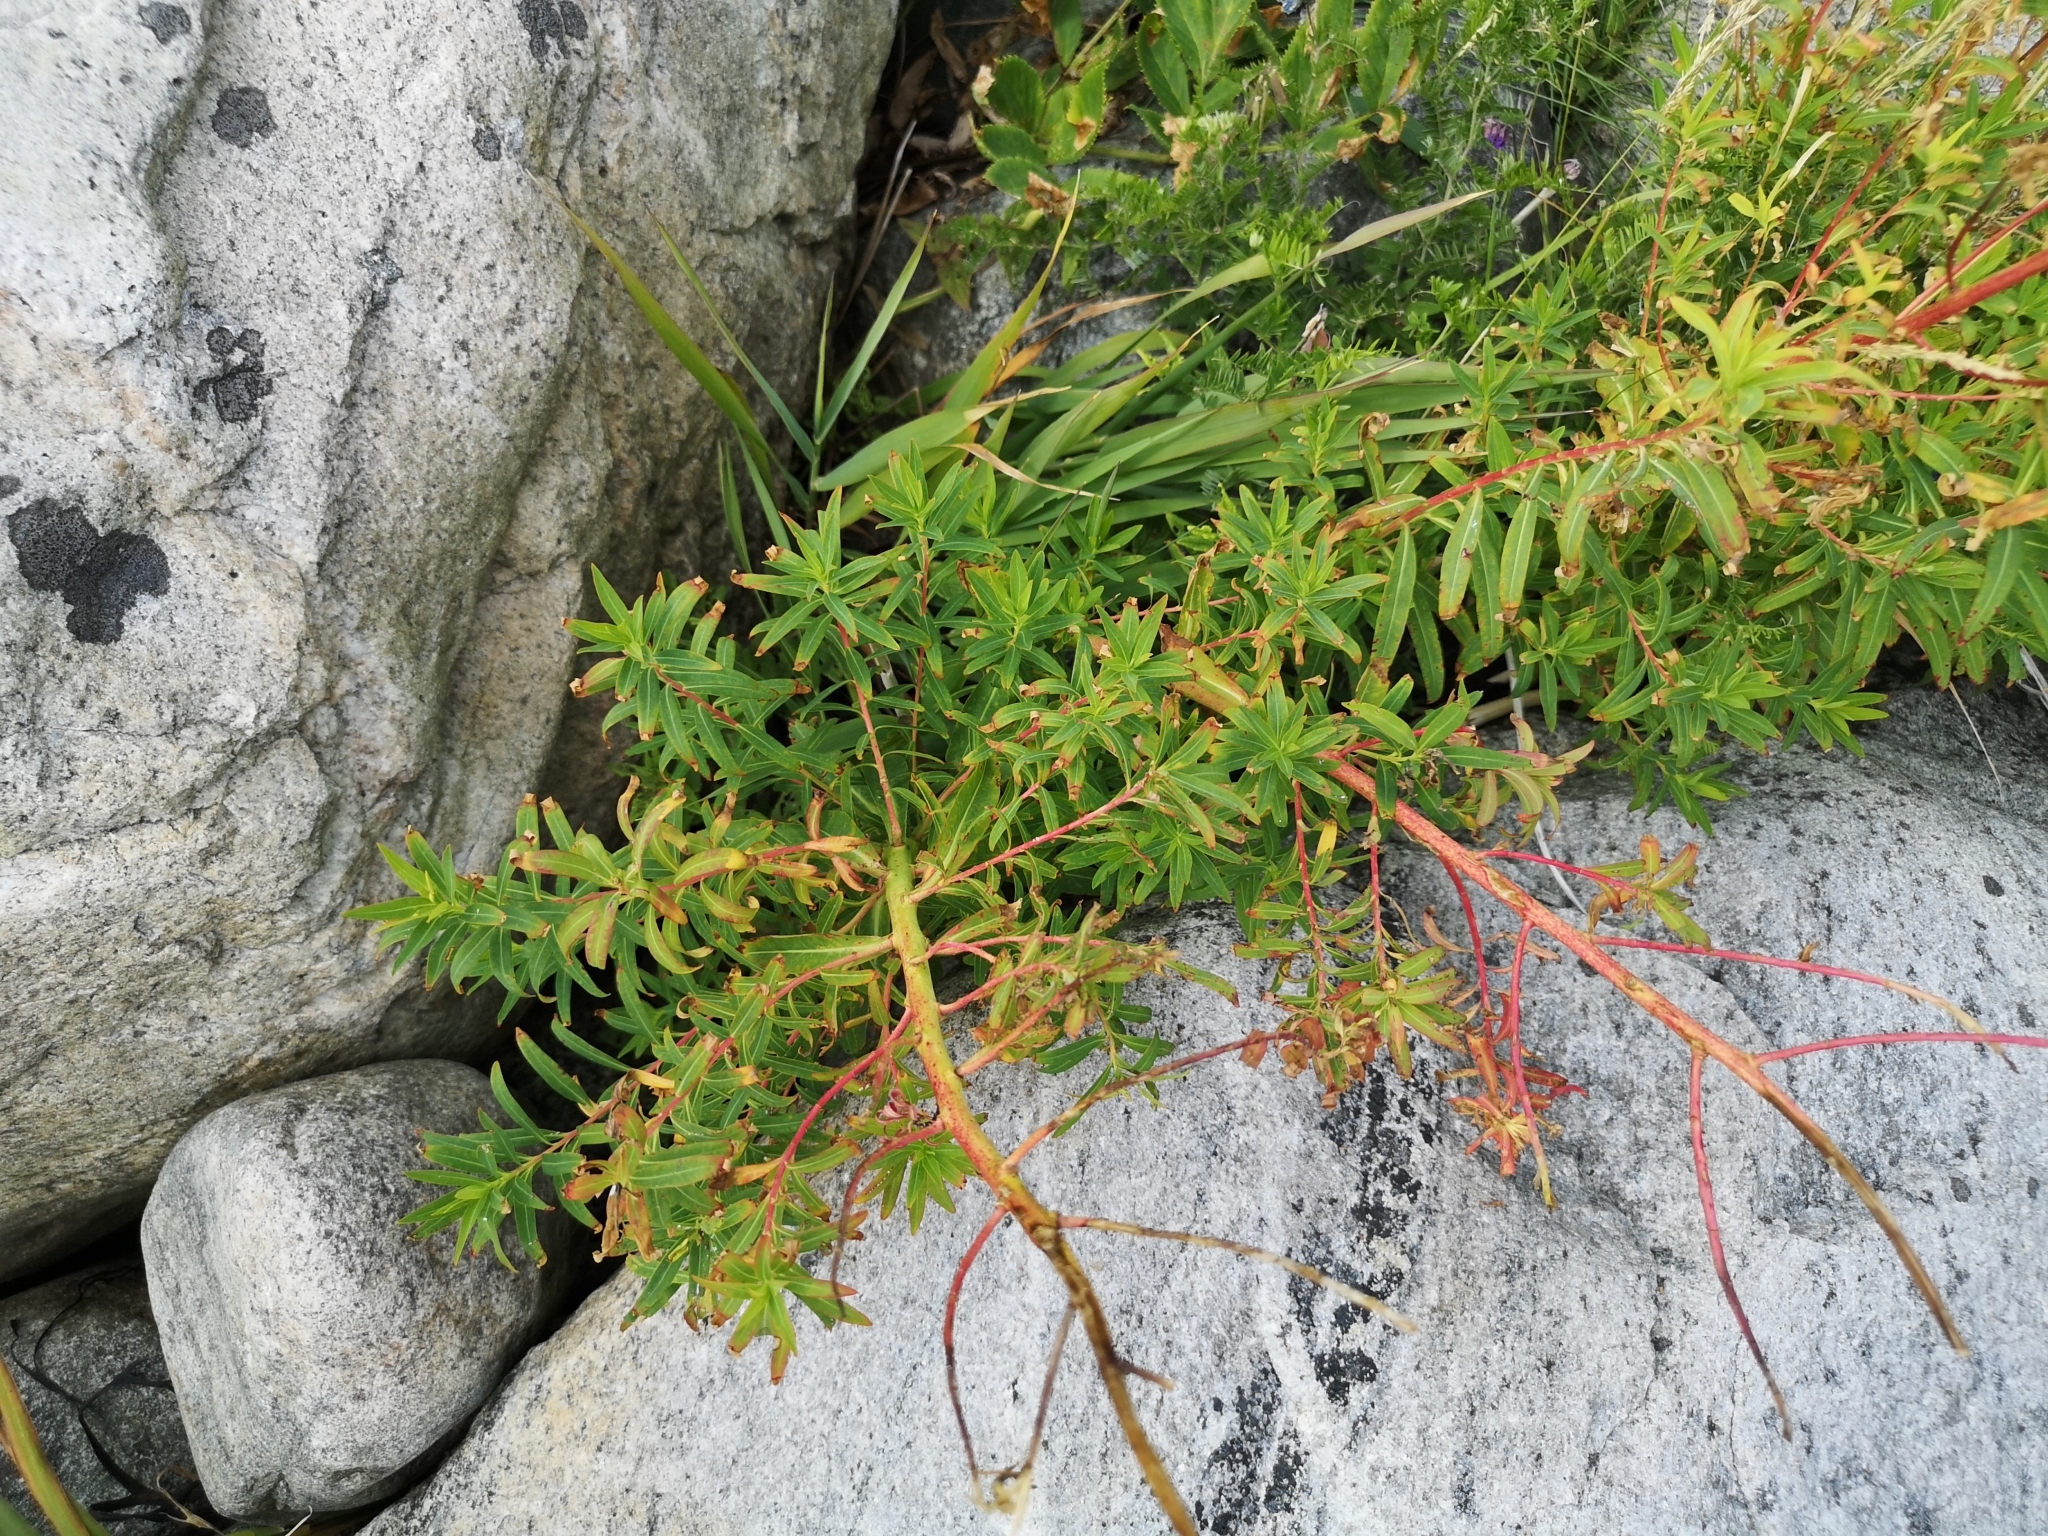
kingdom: Plantae
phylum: Tracheophyta
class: Magnoliopsida
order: Malpighiales
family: Euphorbiaceae
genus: Euphorbia
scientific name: Euphorbia palustris
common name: Marsh spurge
